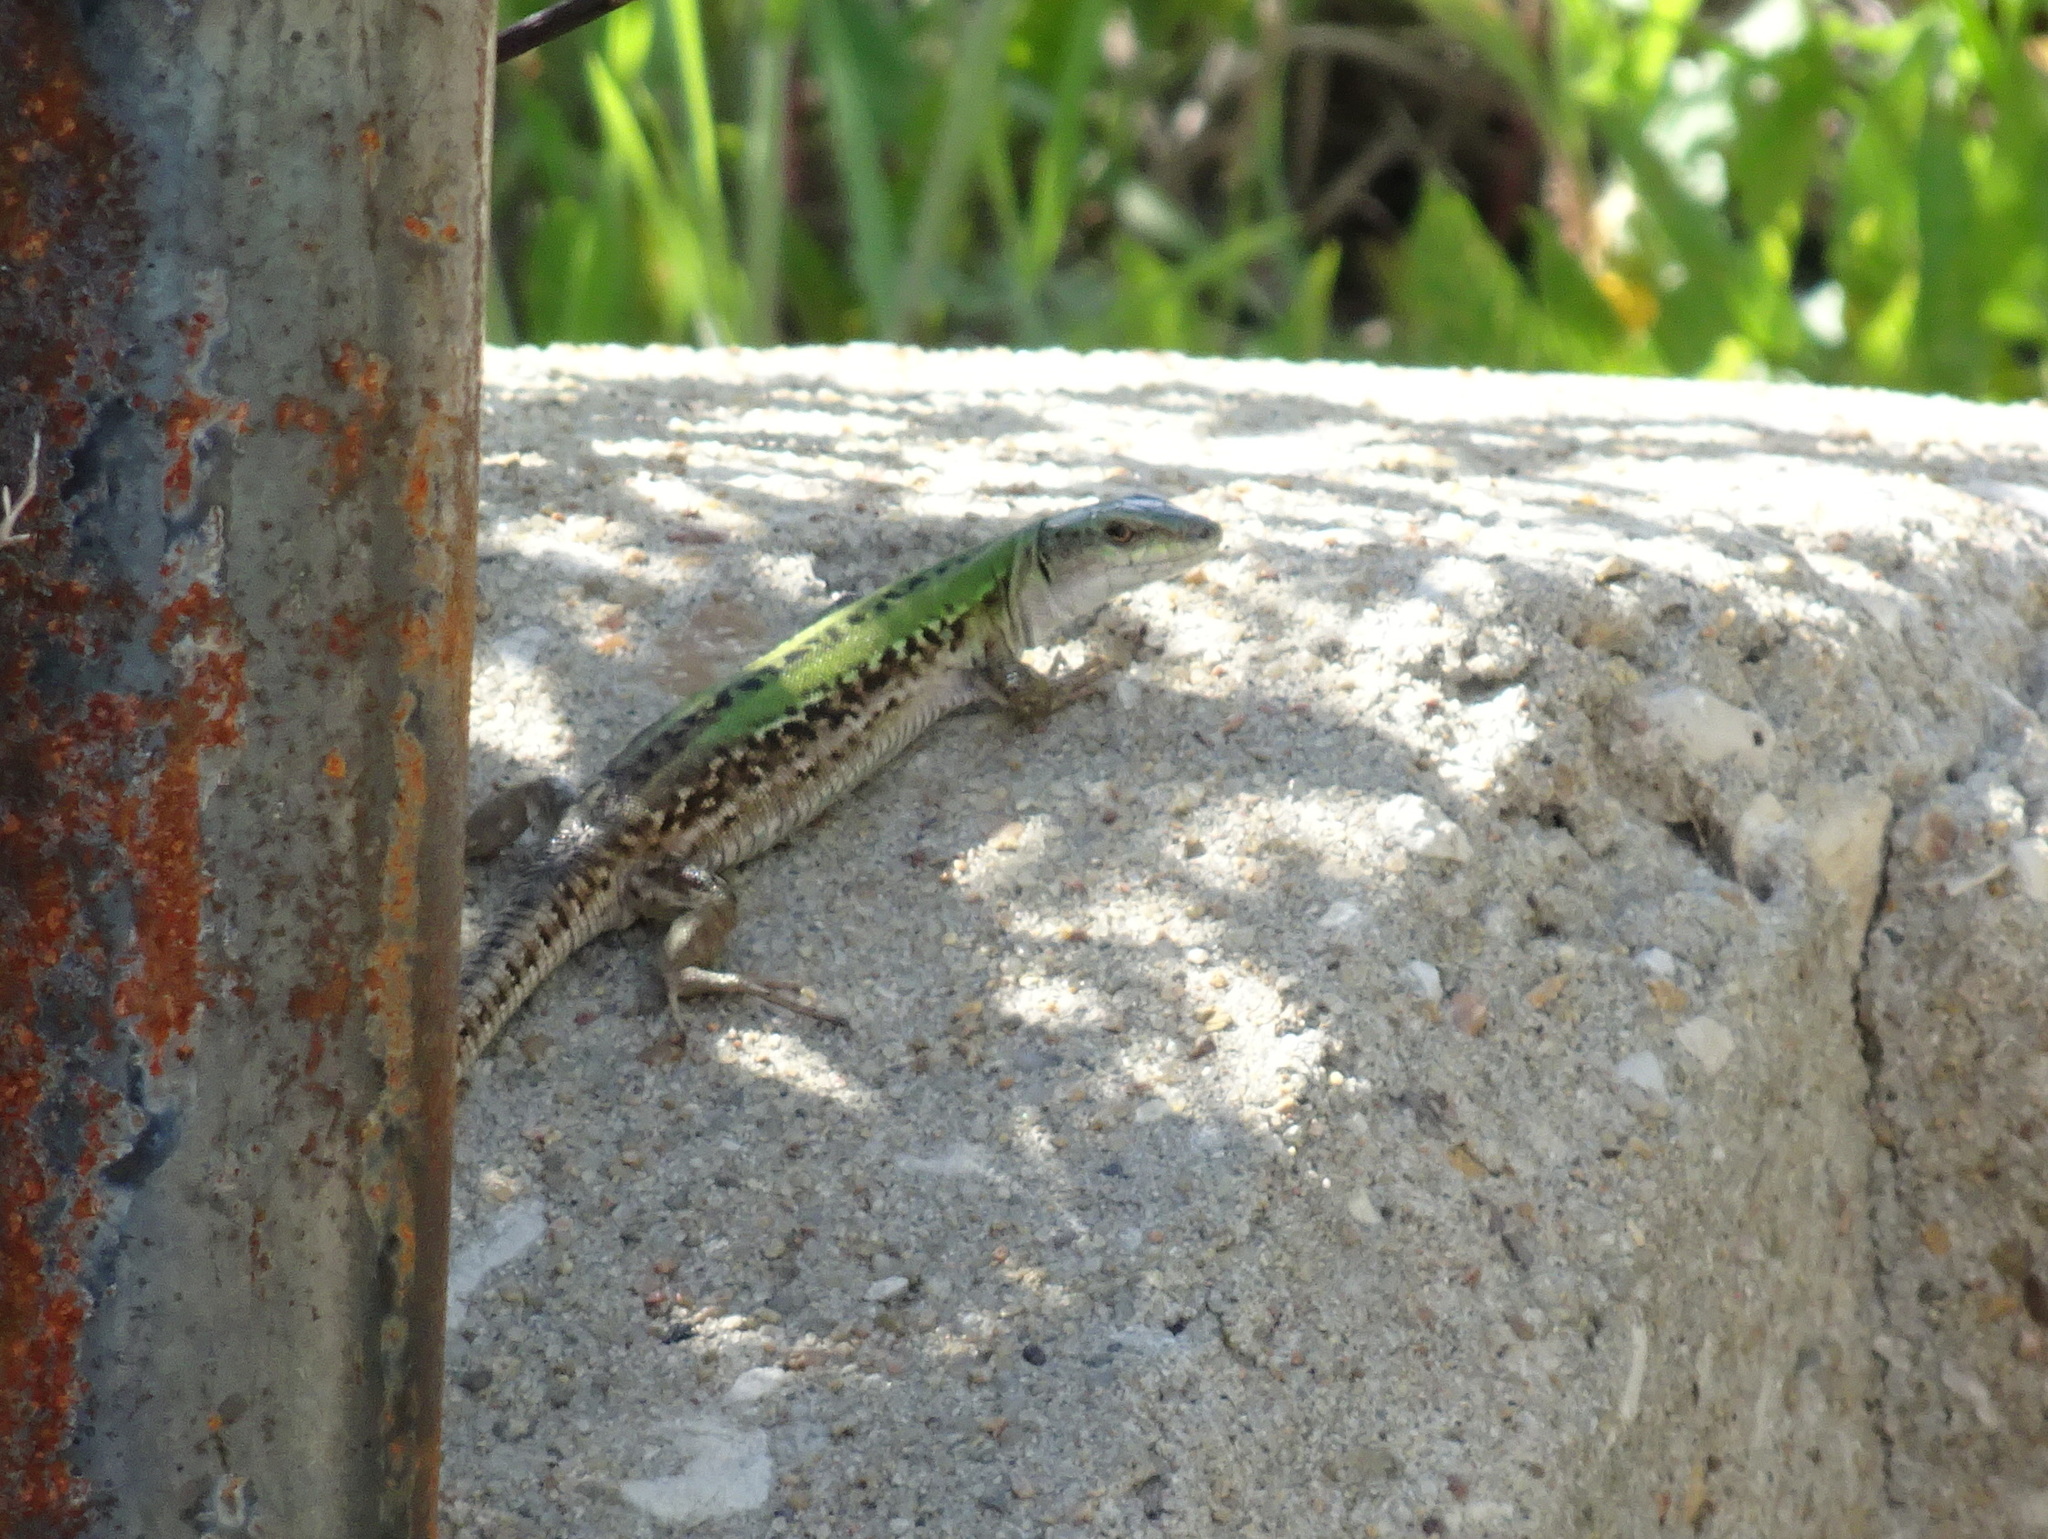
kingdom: Animalia
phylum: Chordata
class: Squamata
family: Lacertidae
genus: Podarcis
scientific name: Podarcis siculus
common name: Italian wall lizard
